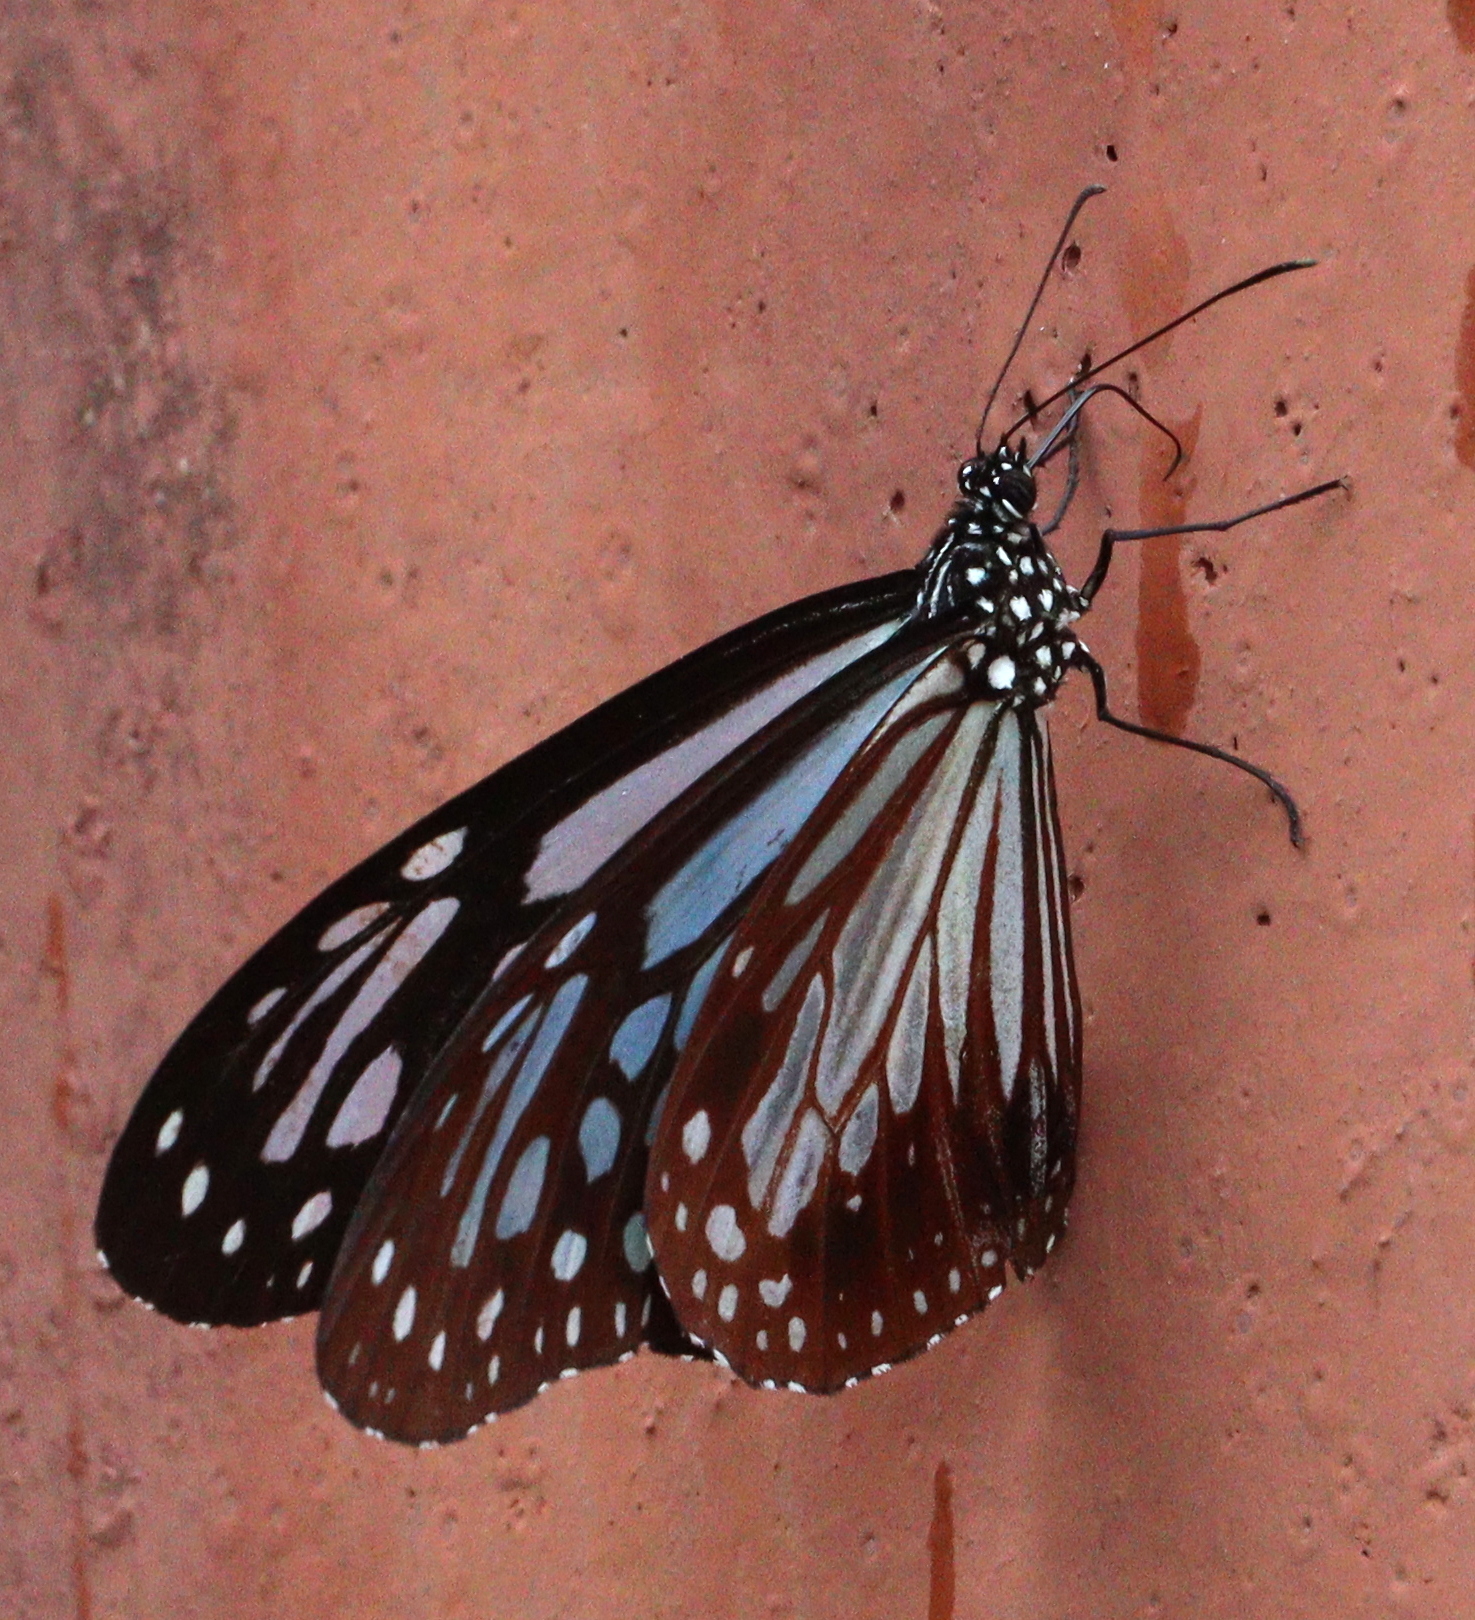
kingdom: Animalia
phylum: Arthropoda
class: Insecta
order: Lepidoptera
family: Nymphalidae
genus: Parantica
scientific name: Parantica melaneus
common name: Chocolate tiger
